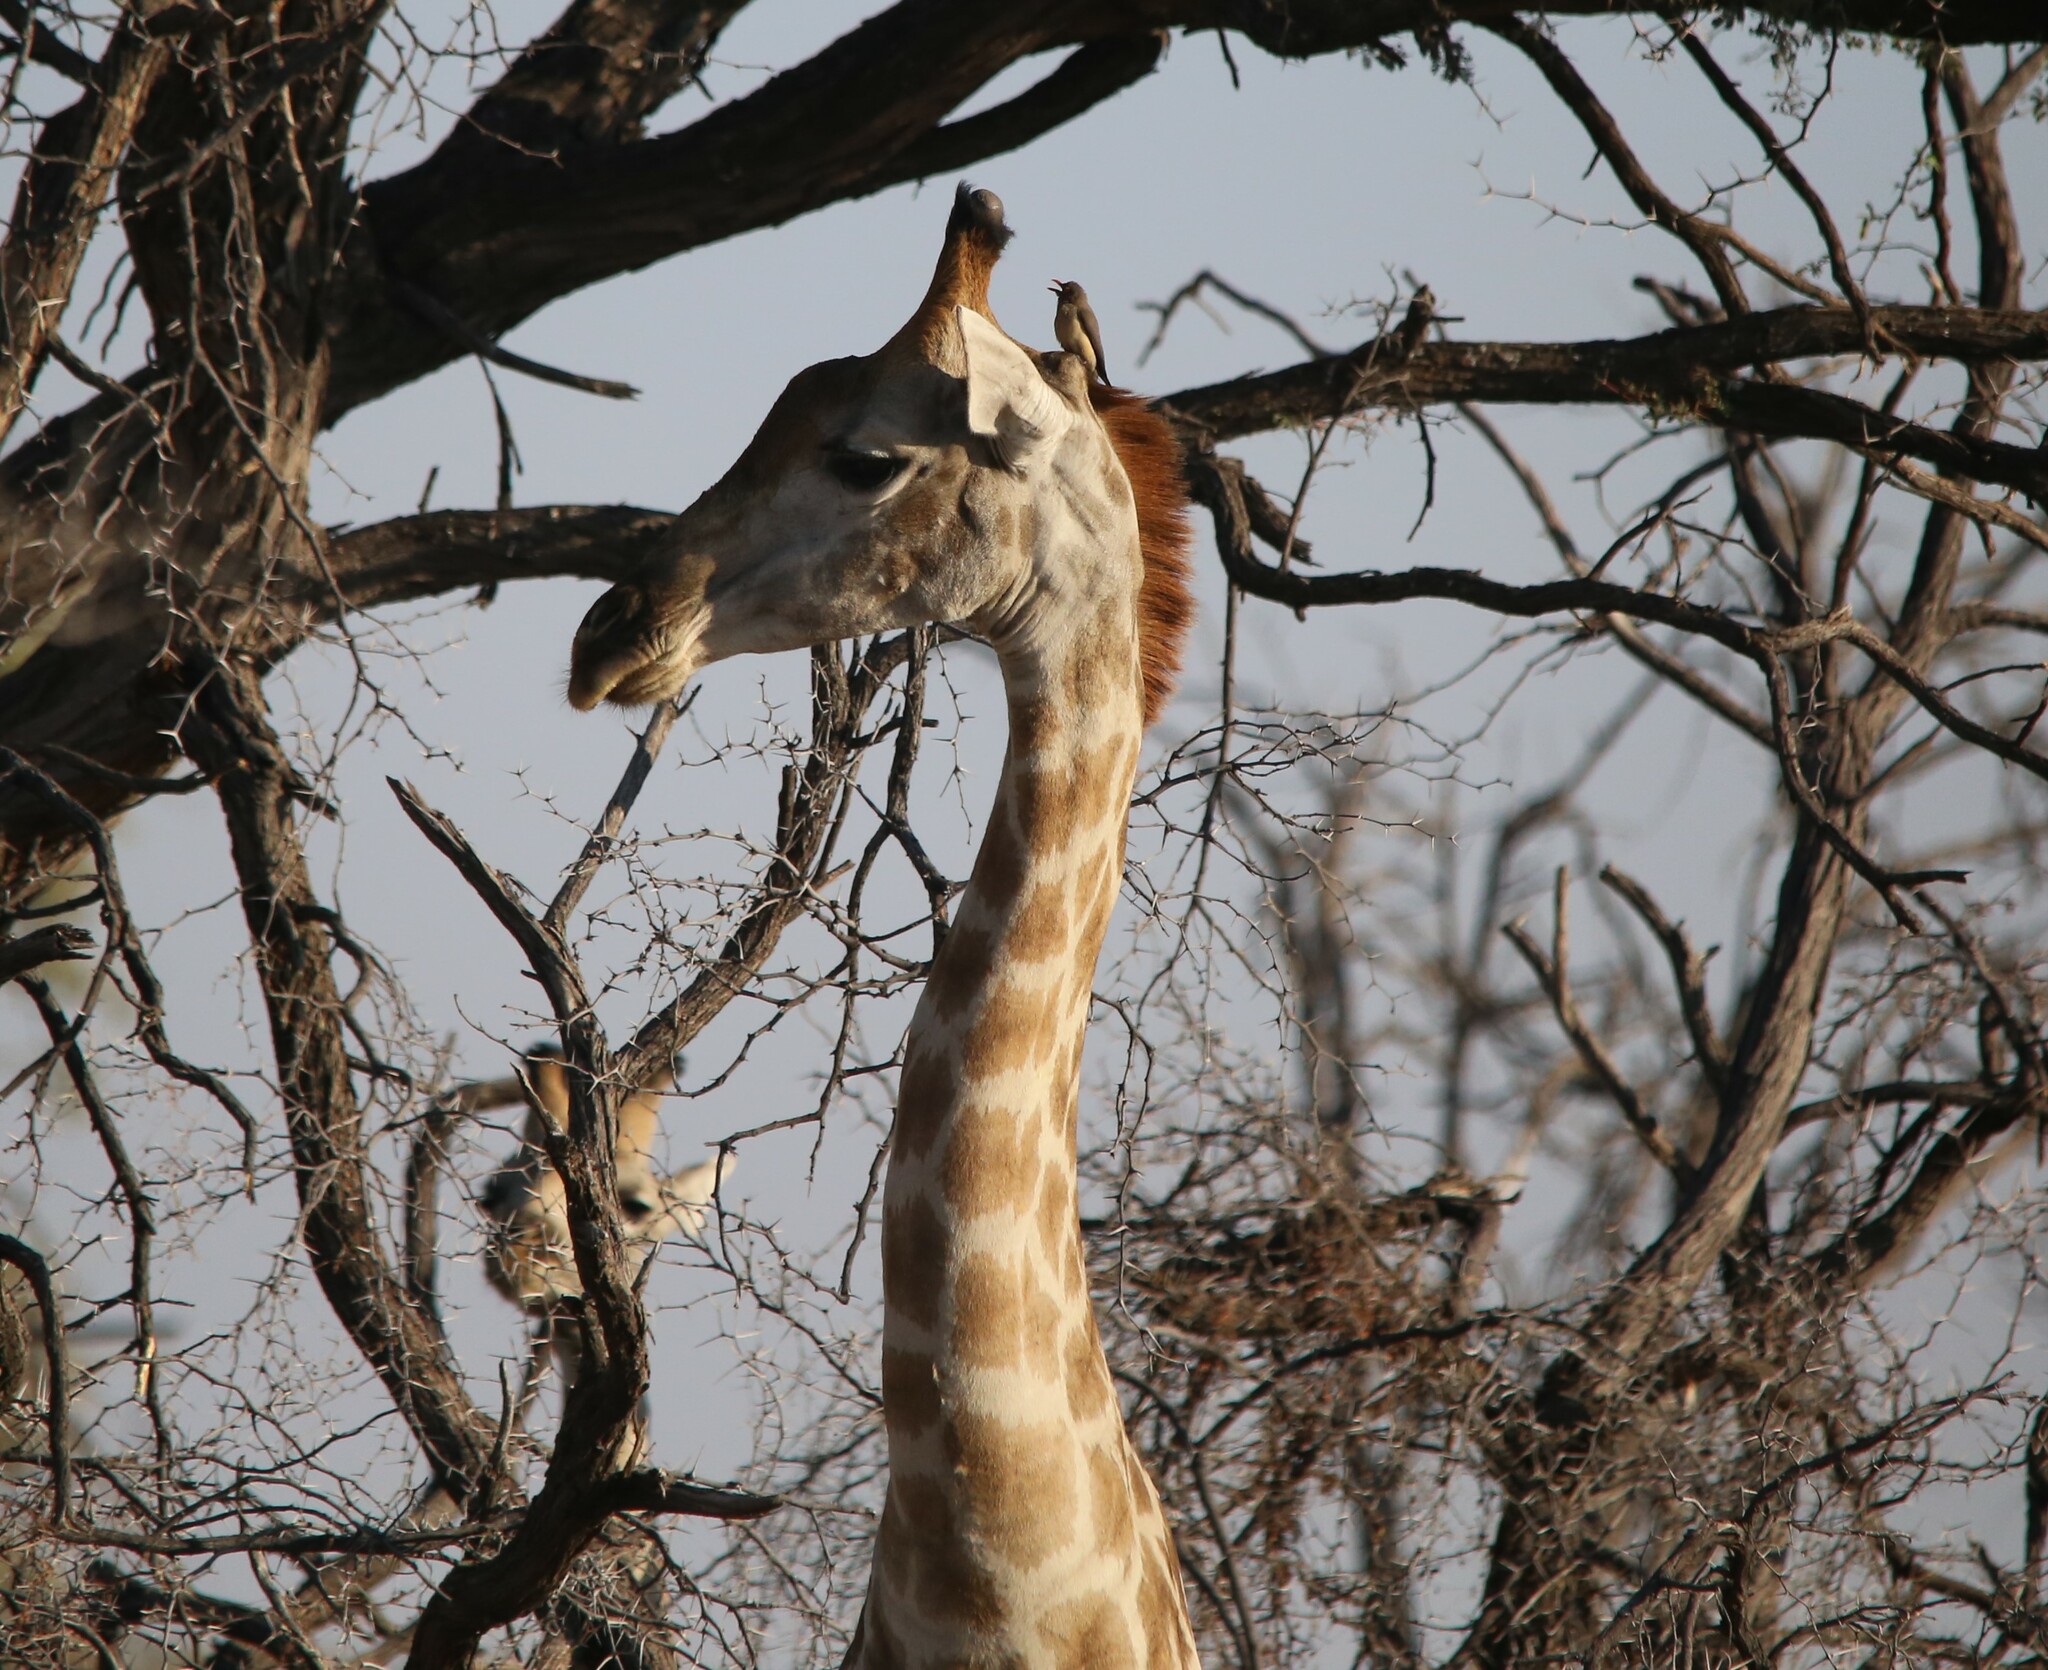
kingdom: Animalia
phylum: Chordata
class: Mammalia
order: Artiodactyla
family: Giraffidae
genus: Giraffa
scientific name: Giraffa giraffa
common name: Southern giraffe
